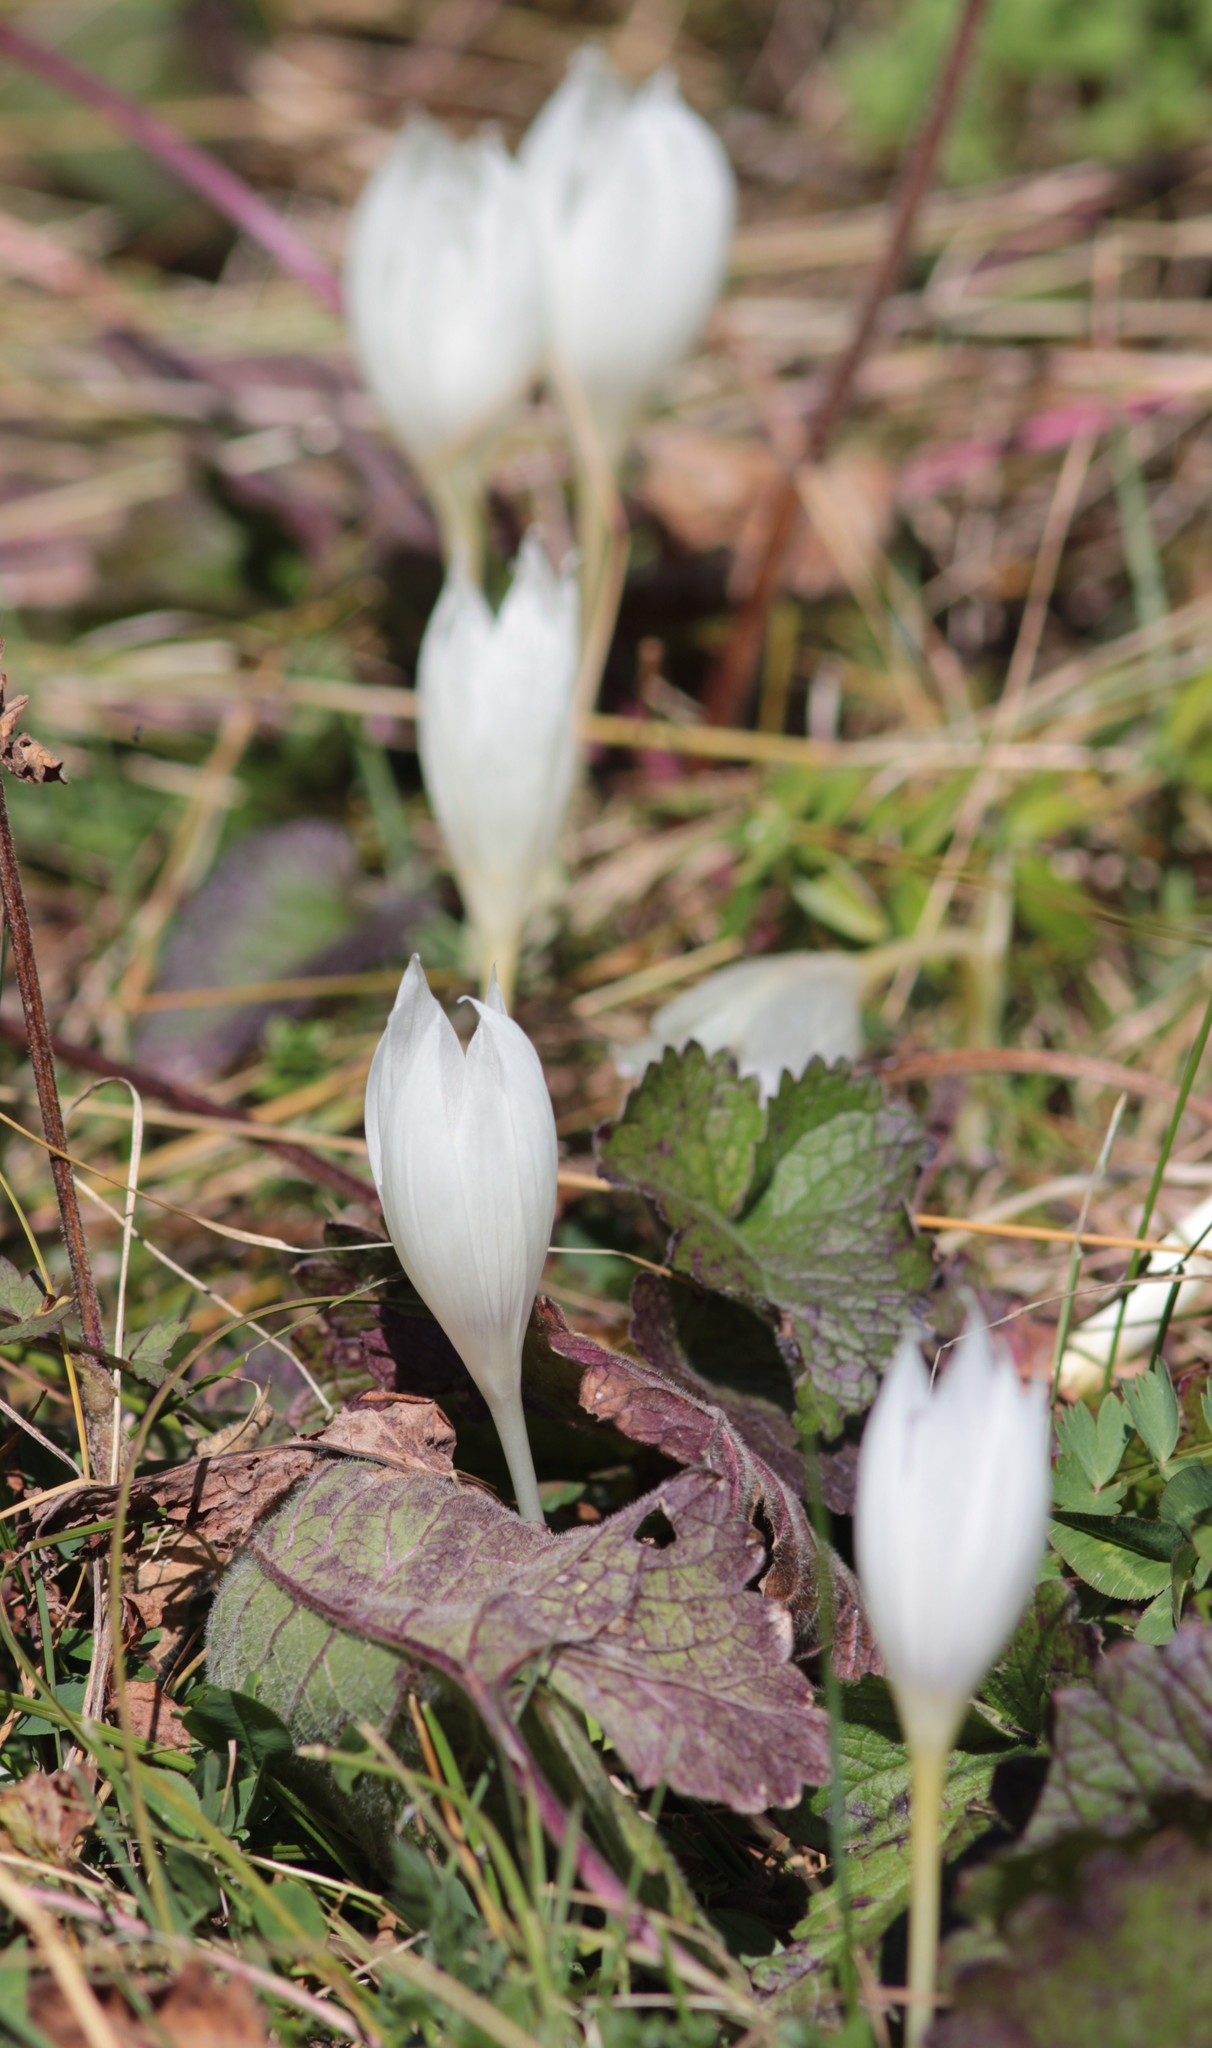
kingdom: Plantae
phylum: Tracheophyta
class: Liliopsida
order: Asparagales
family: Iridaceae
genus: Crocus
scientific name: Crocus vallicola
